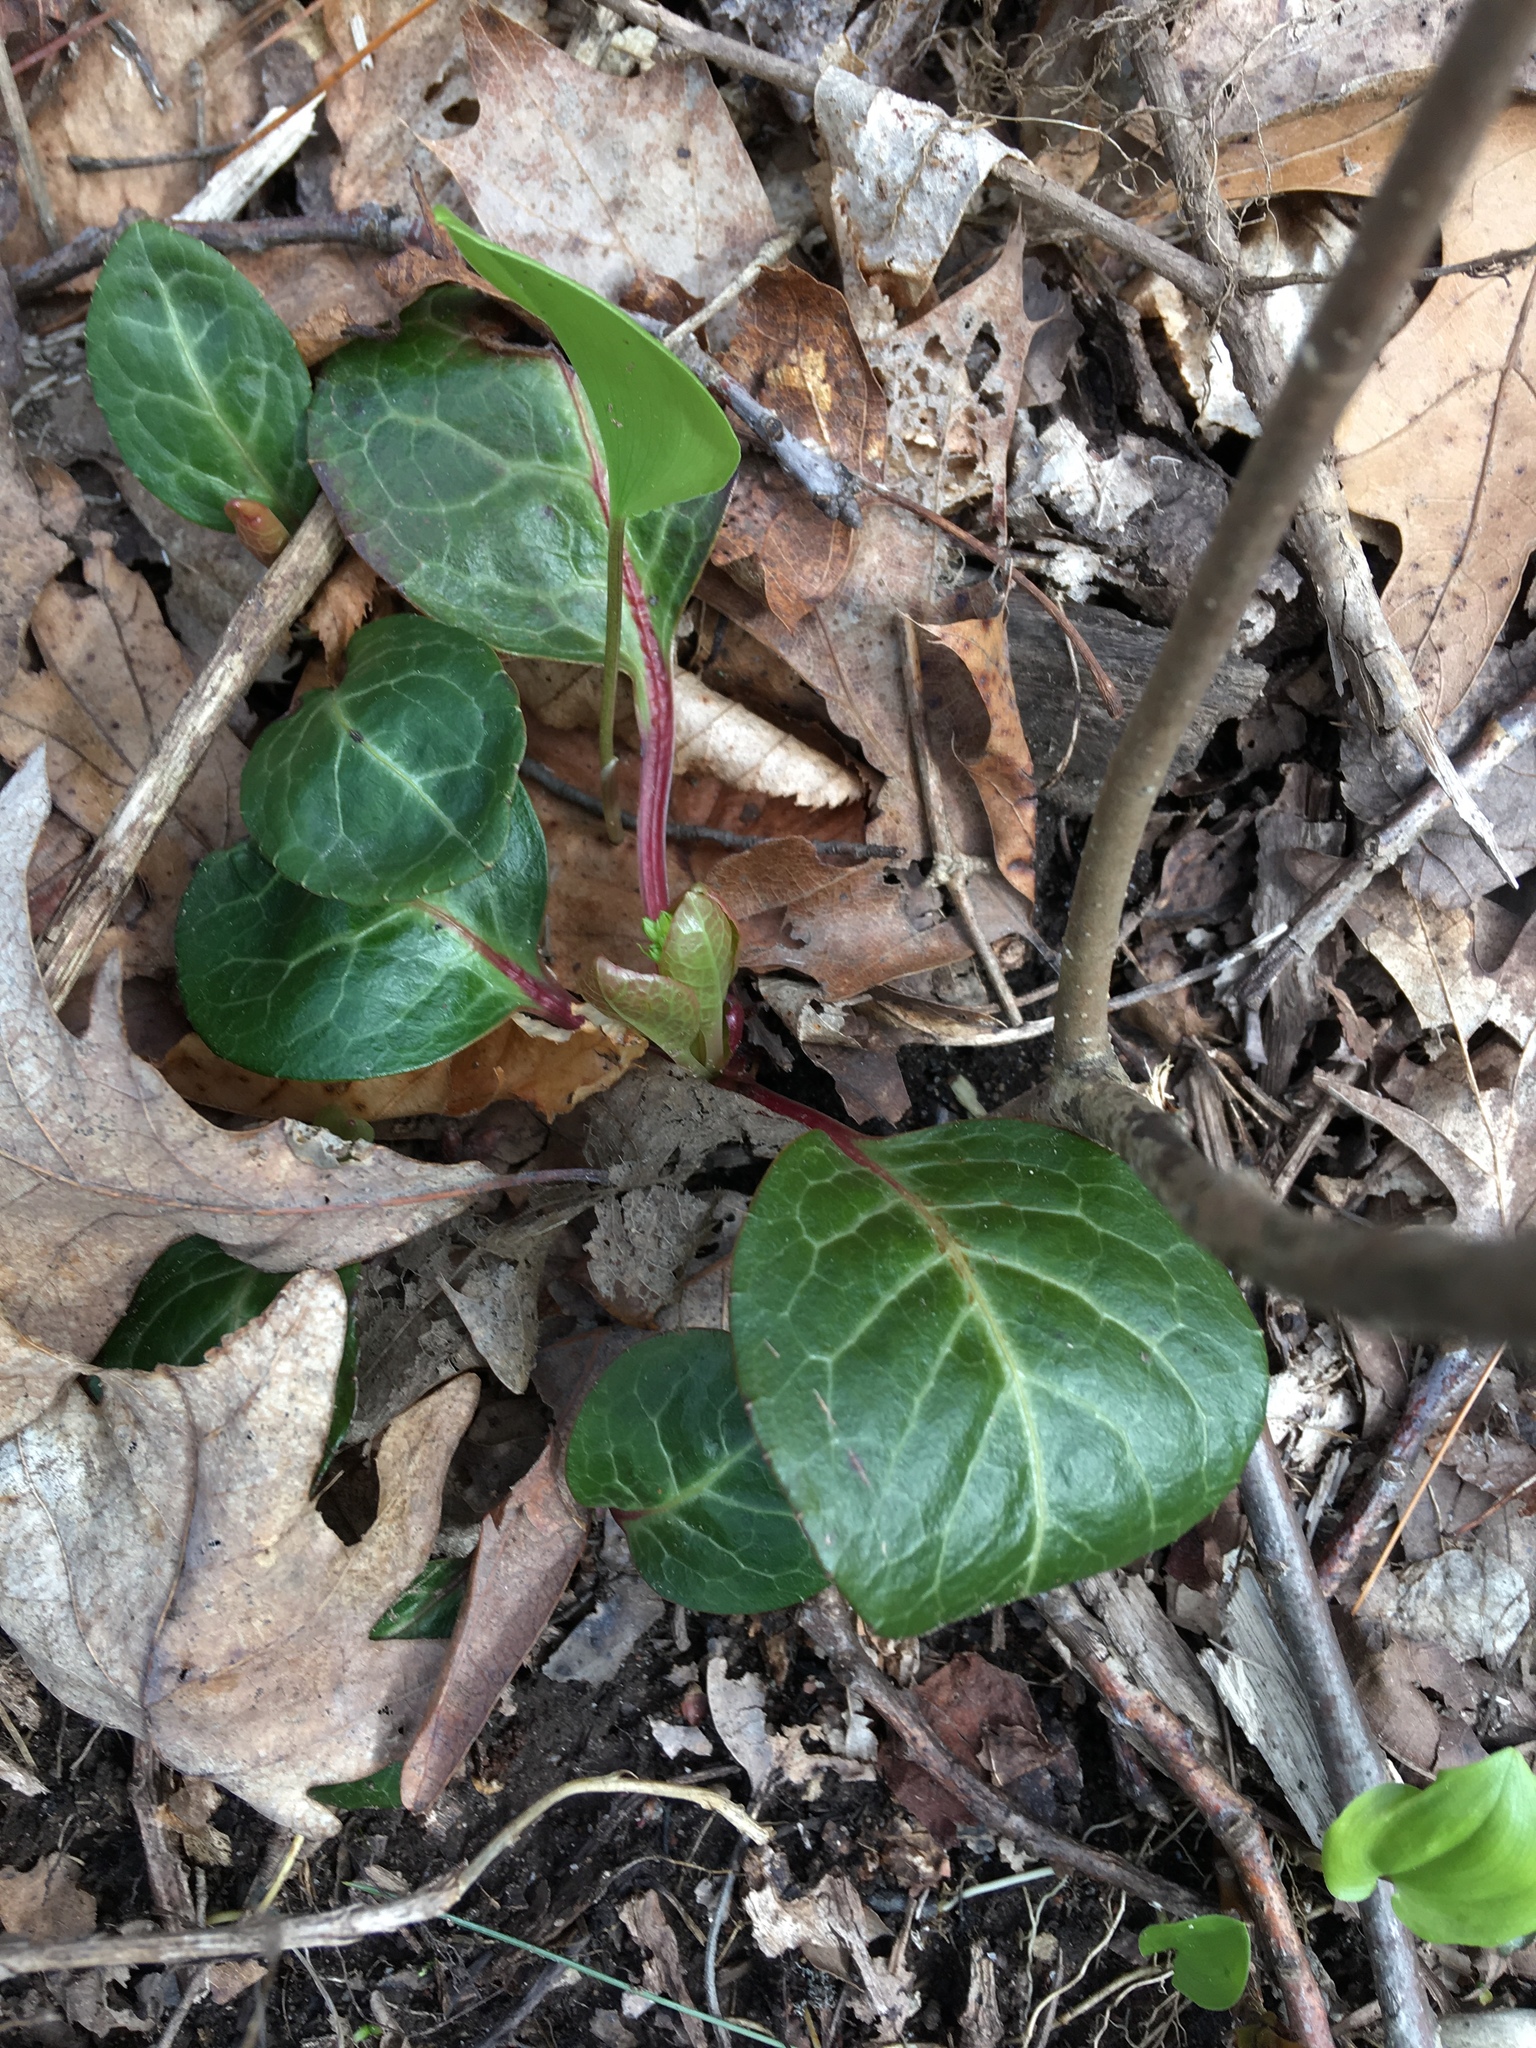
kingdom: Plantae
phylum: Tracheophyta
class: Magnoliopsida
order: Ericales
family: Ericaceae
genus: Pyrola
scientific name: Pyrola americana
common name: American wintergreen
